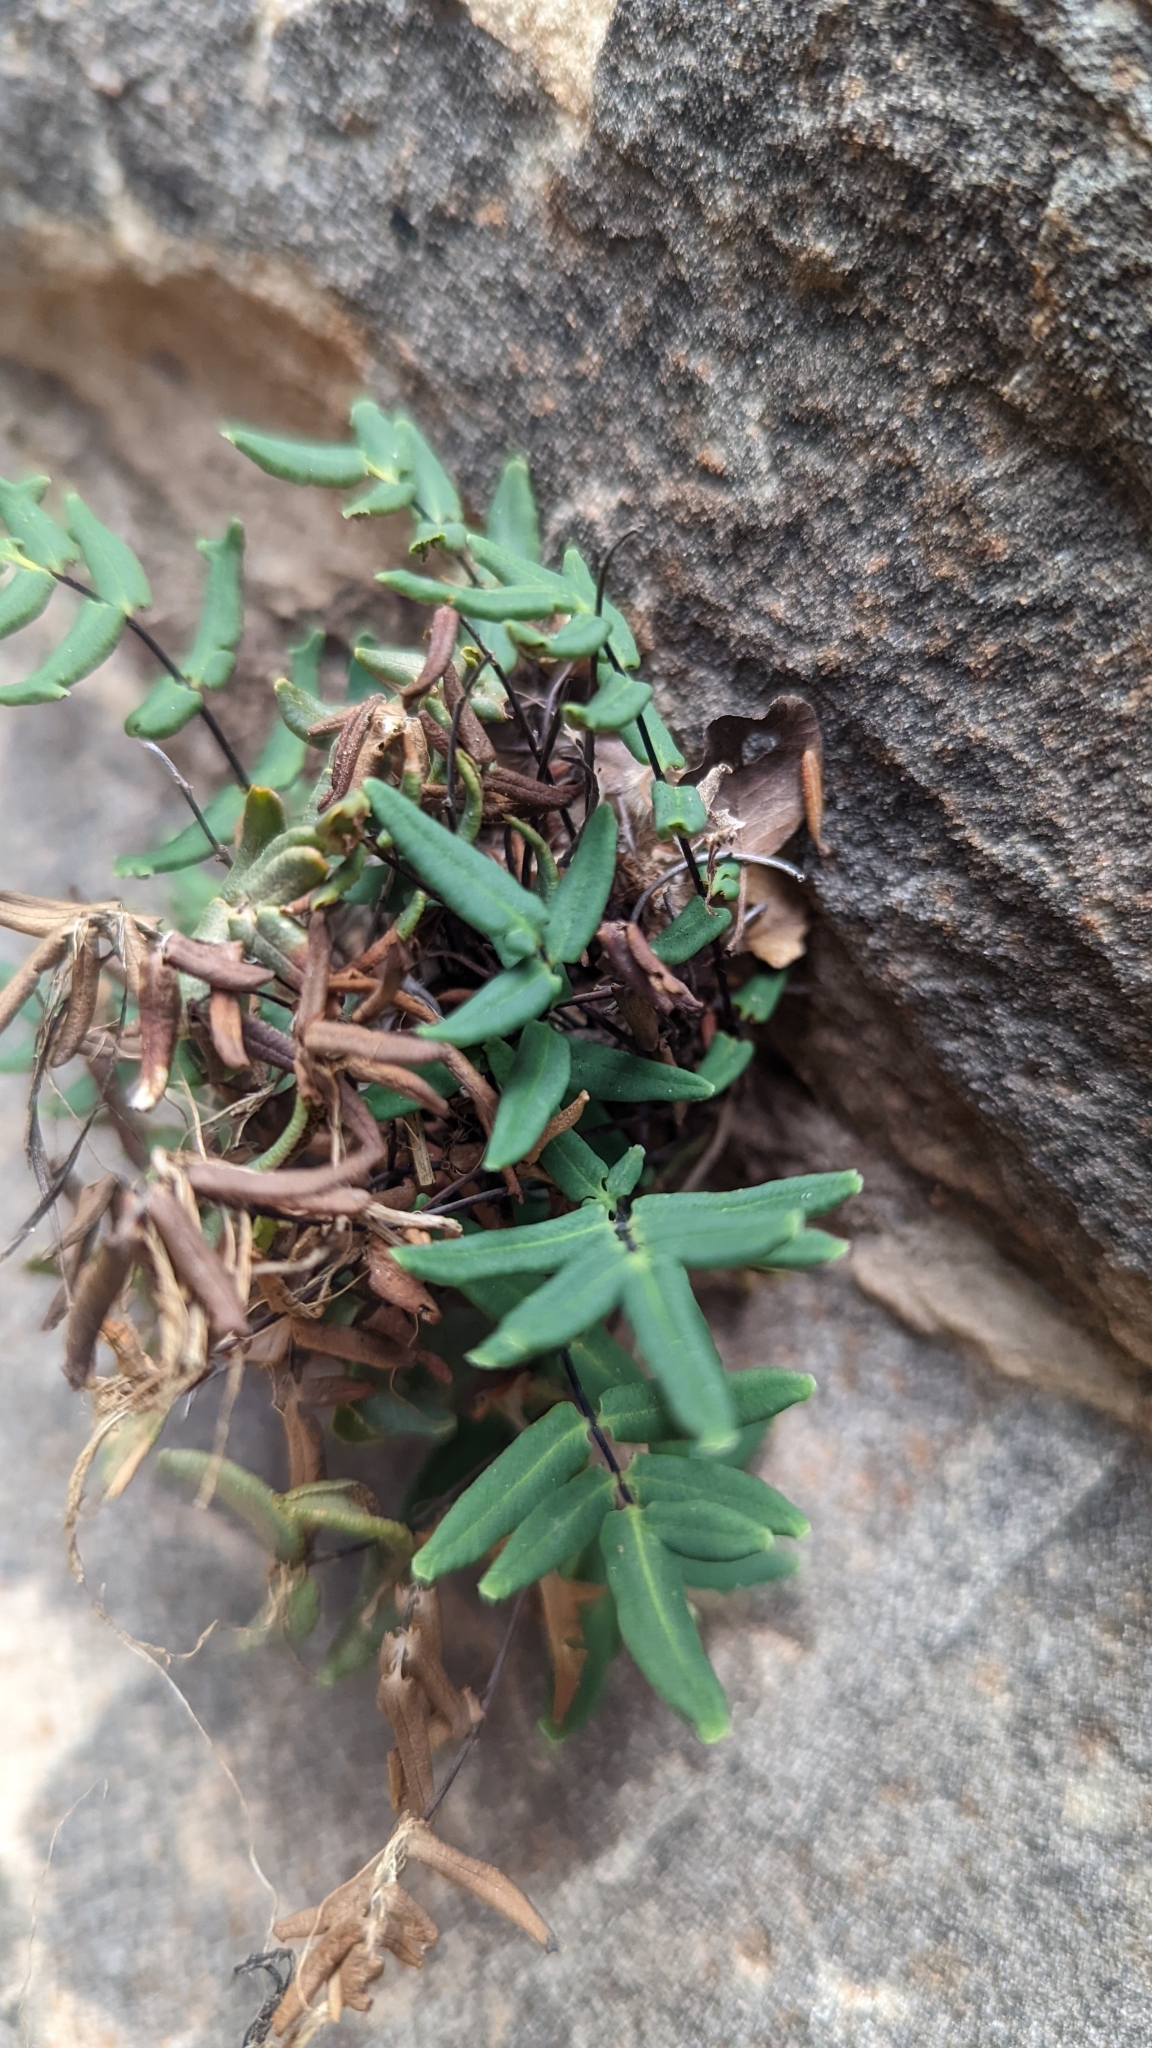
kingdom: Plantae
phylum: Tracheophyta
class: Polypodiopsida
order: Polypodiales
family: Pteridaceae
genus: Pellaea
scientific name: Pellaea glabella
